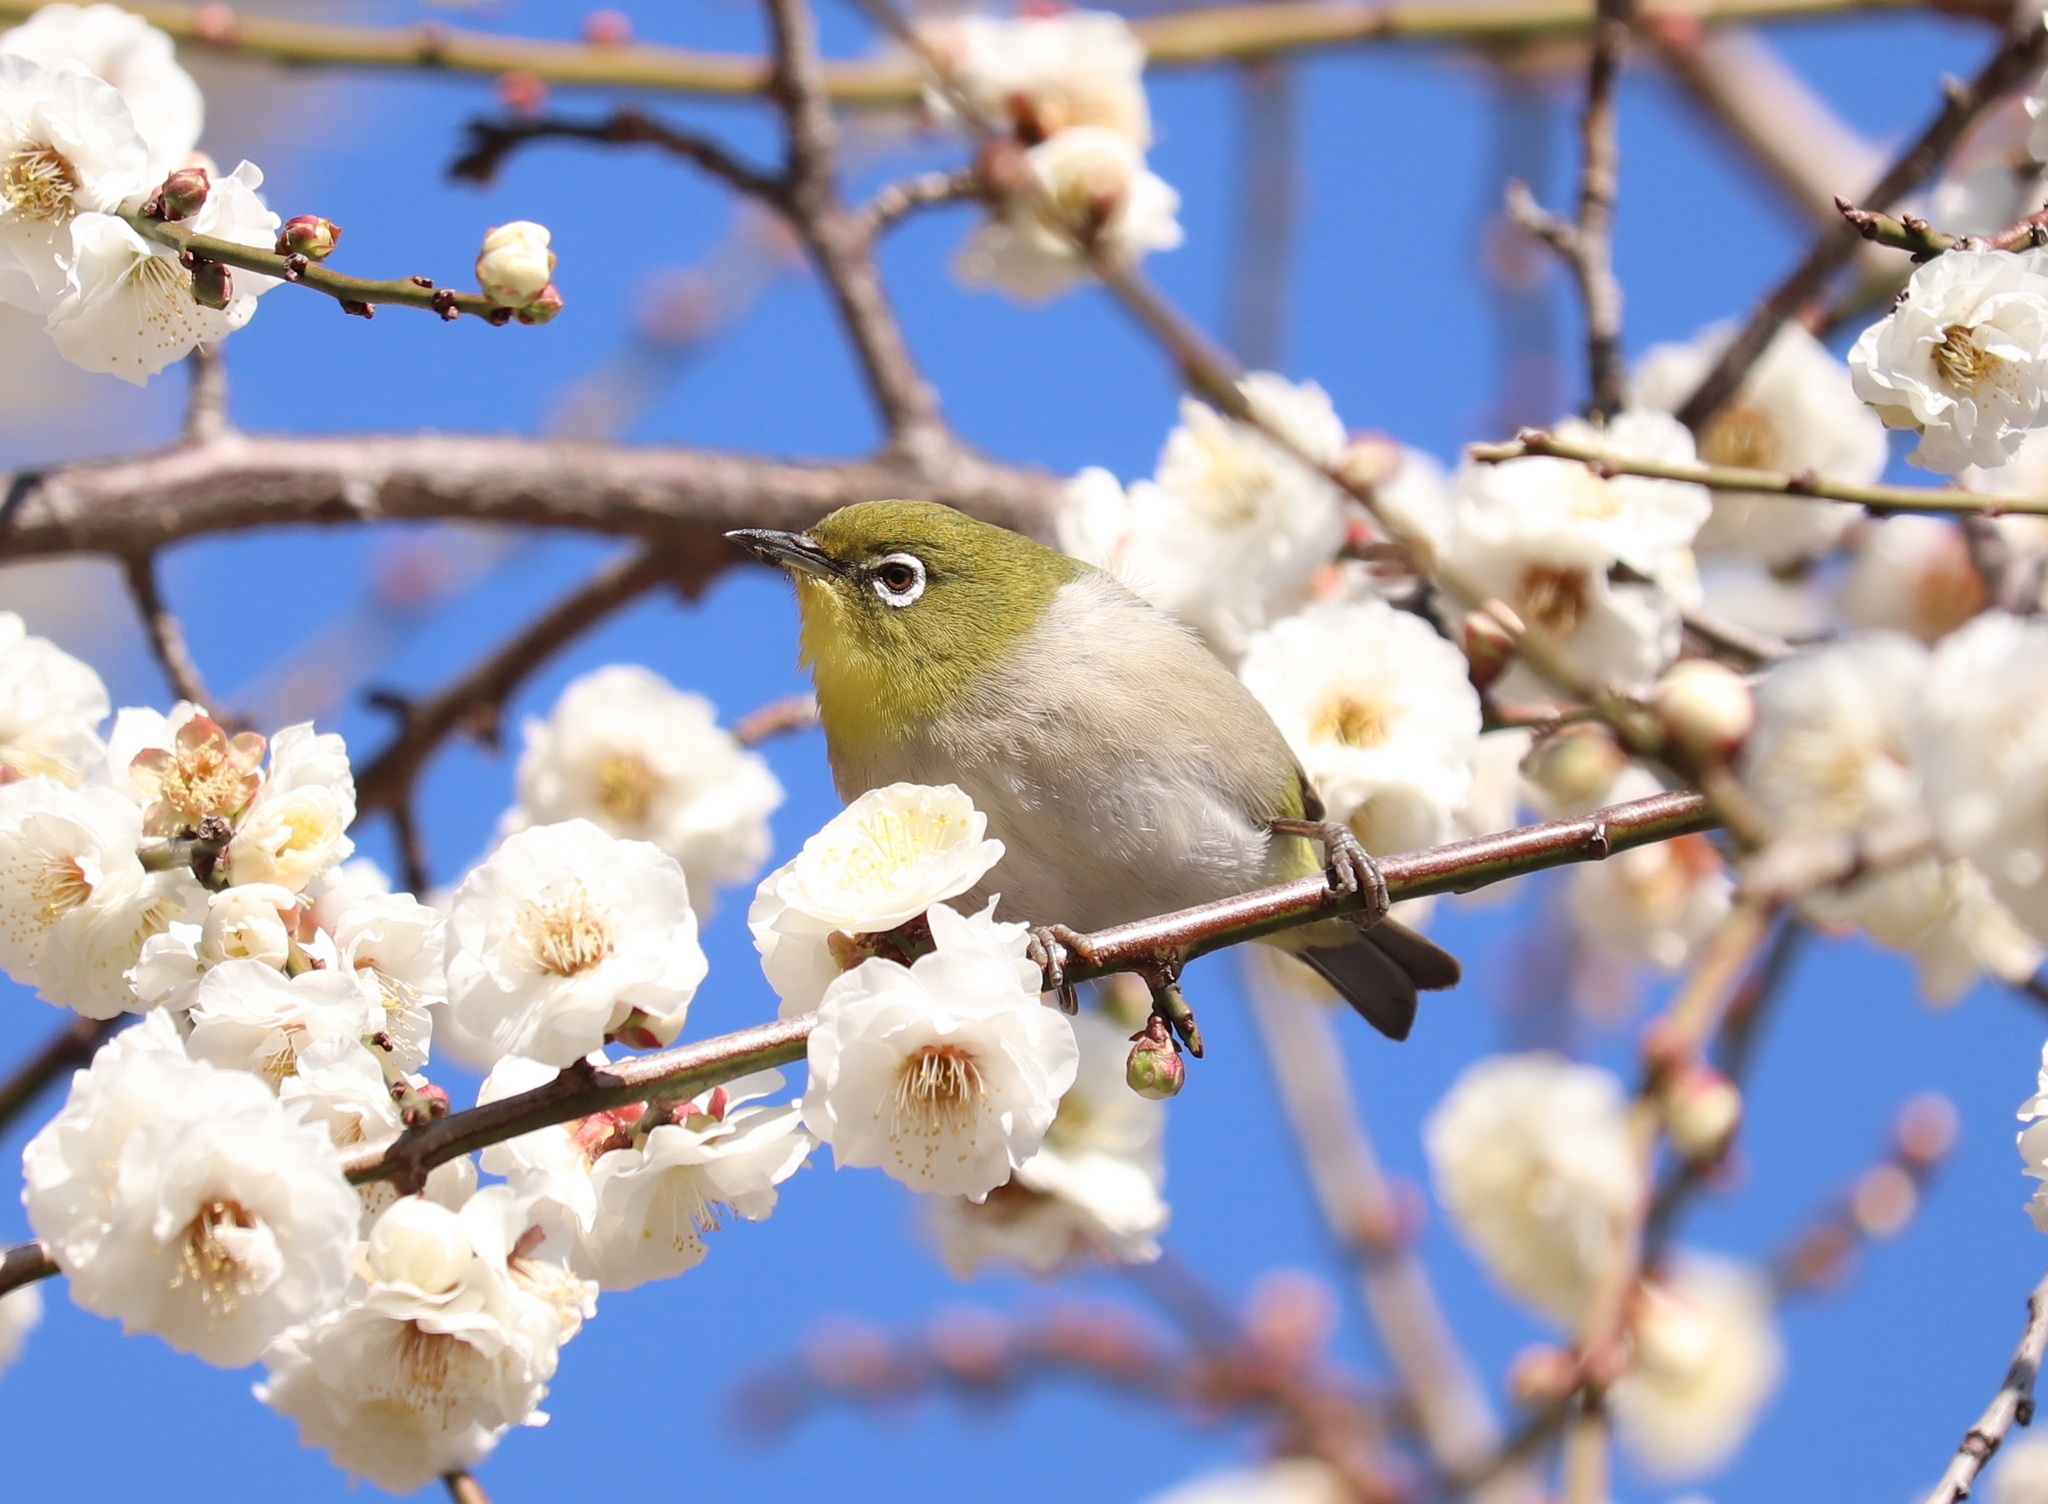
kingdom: Animalia
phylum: Chordata
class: Aves
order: Passeriformes
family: Zosteropidae
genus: Zosterops
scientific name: Zosterops japonicus
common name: Japanese white-eye
